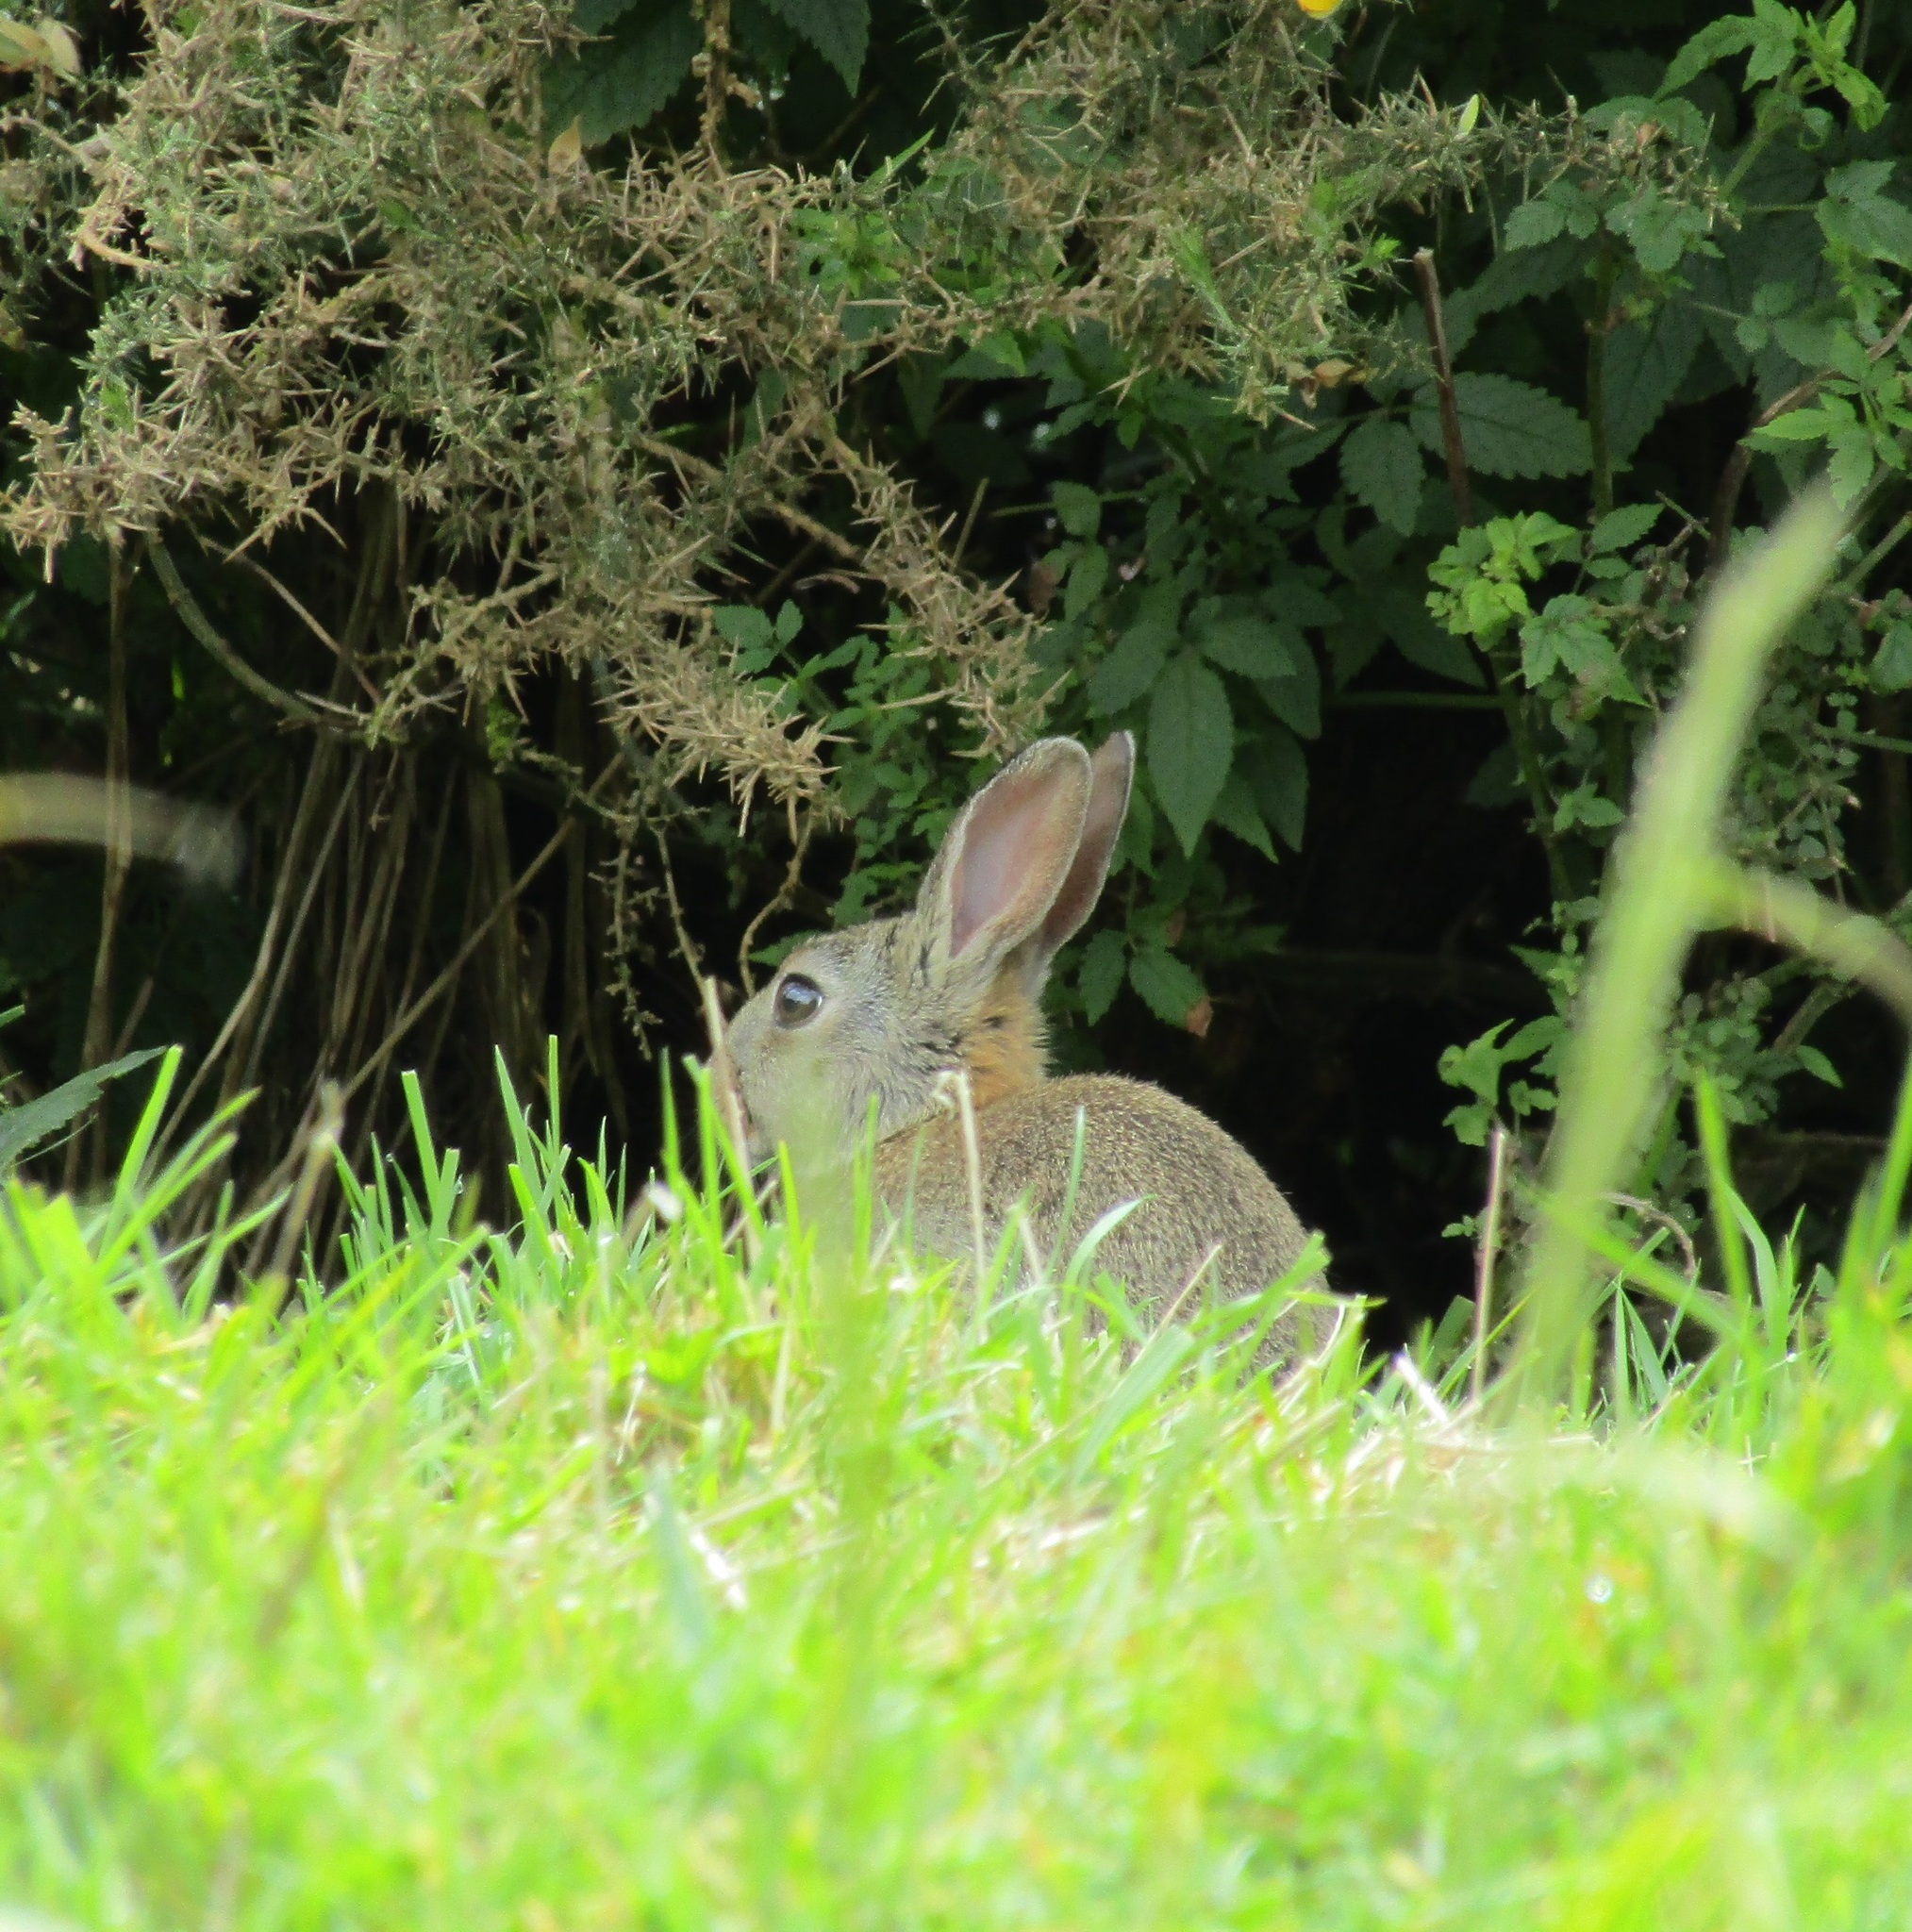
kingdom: Animalia
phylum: Chordata
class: Mammalia
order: Lagomorpha
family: Leporidae
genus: Oryctolagus
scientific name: Oryctolagus cuniculus
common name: European rabbit
